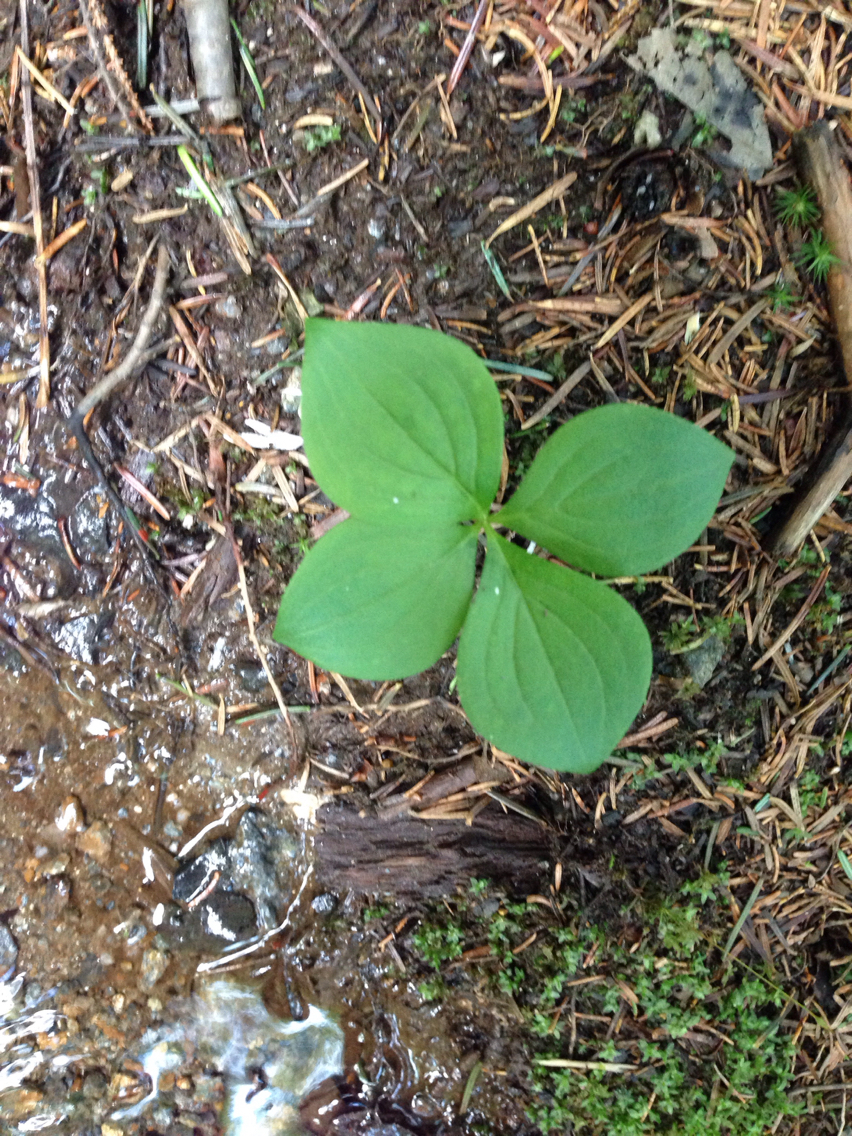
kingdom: Plantae
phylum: Tracheophyta
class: Magnoliopsida
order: Cornales
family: Cornaceae
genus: Cornus
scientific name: Cornus canadensis
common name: Creeping dogwood
